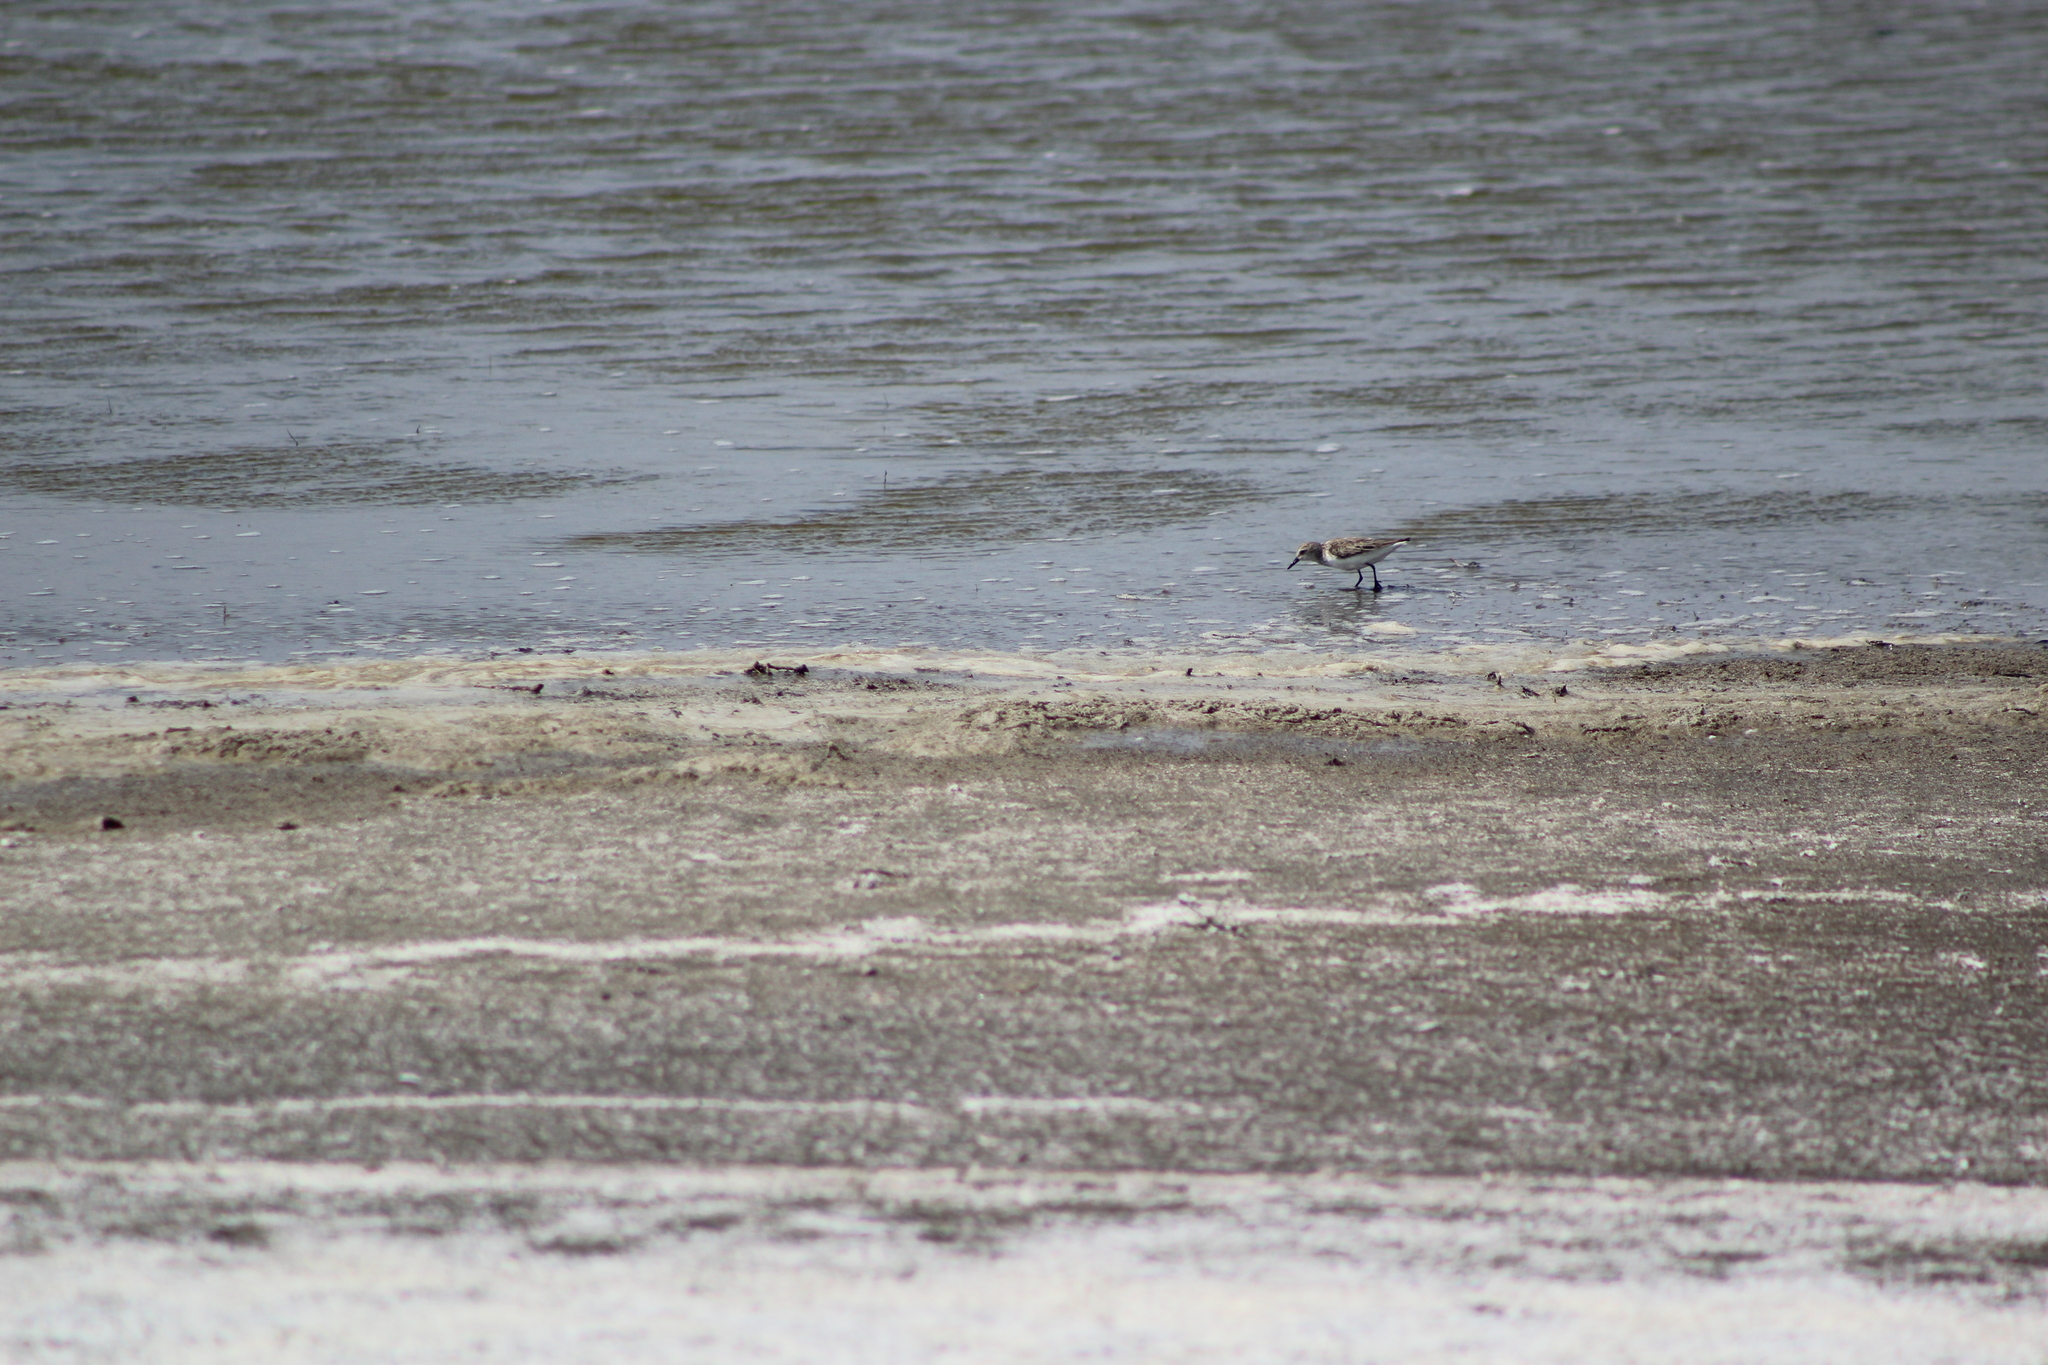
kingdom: Animalia
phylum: Chordata
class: Aves
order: Charadriiformes
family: Scolopacidae
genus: Calidris
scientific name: Calidris pusilla
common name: Semipalmated sandpiper
